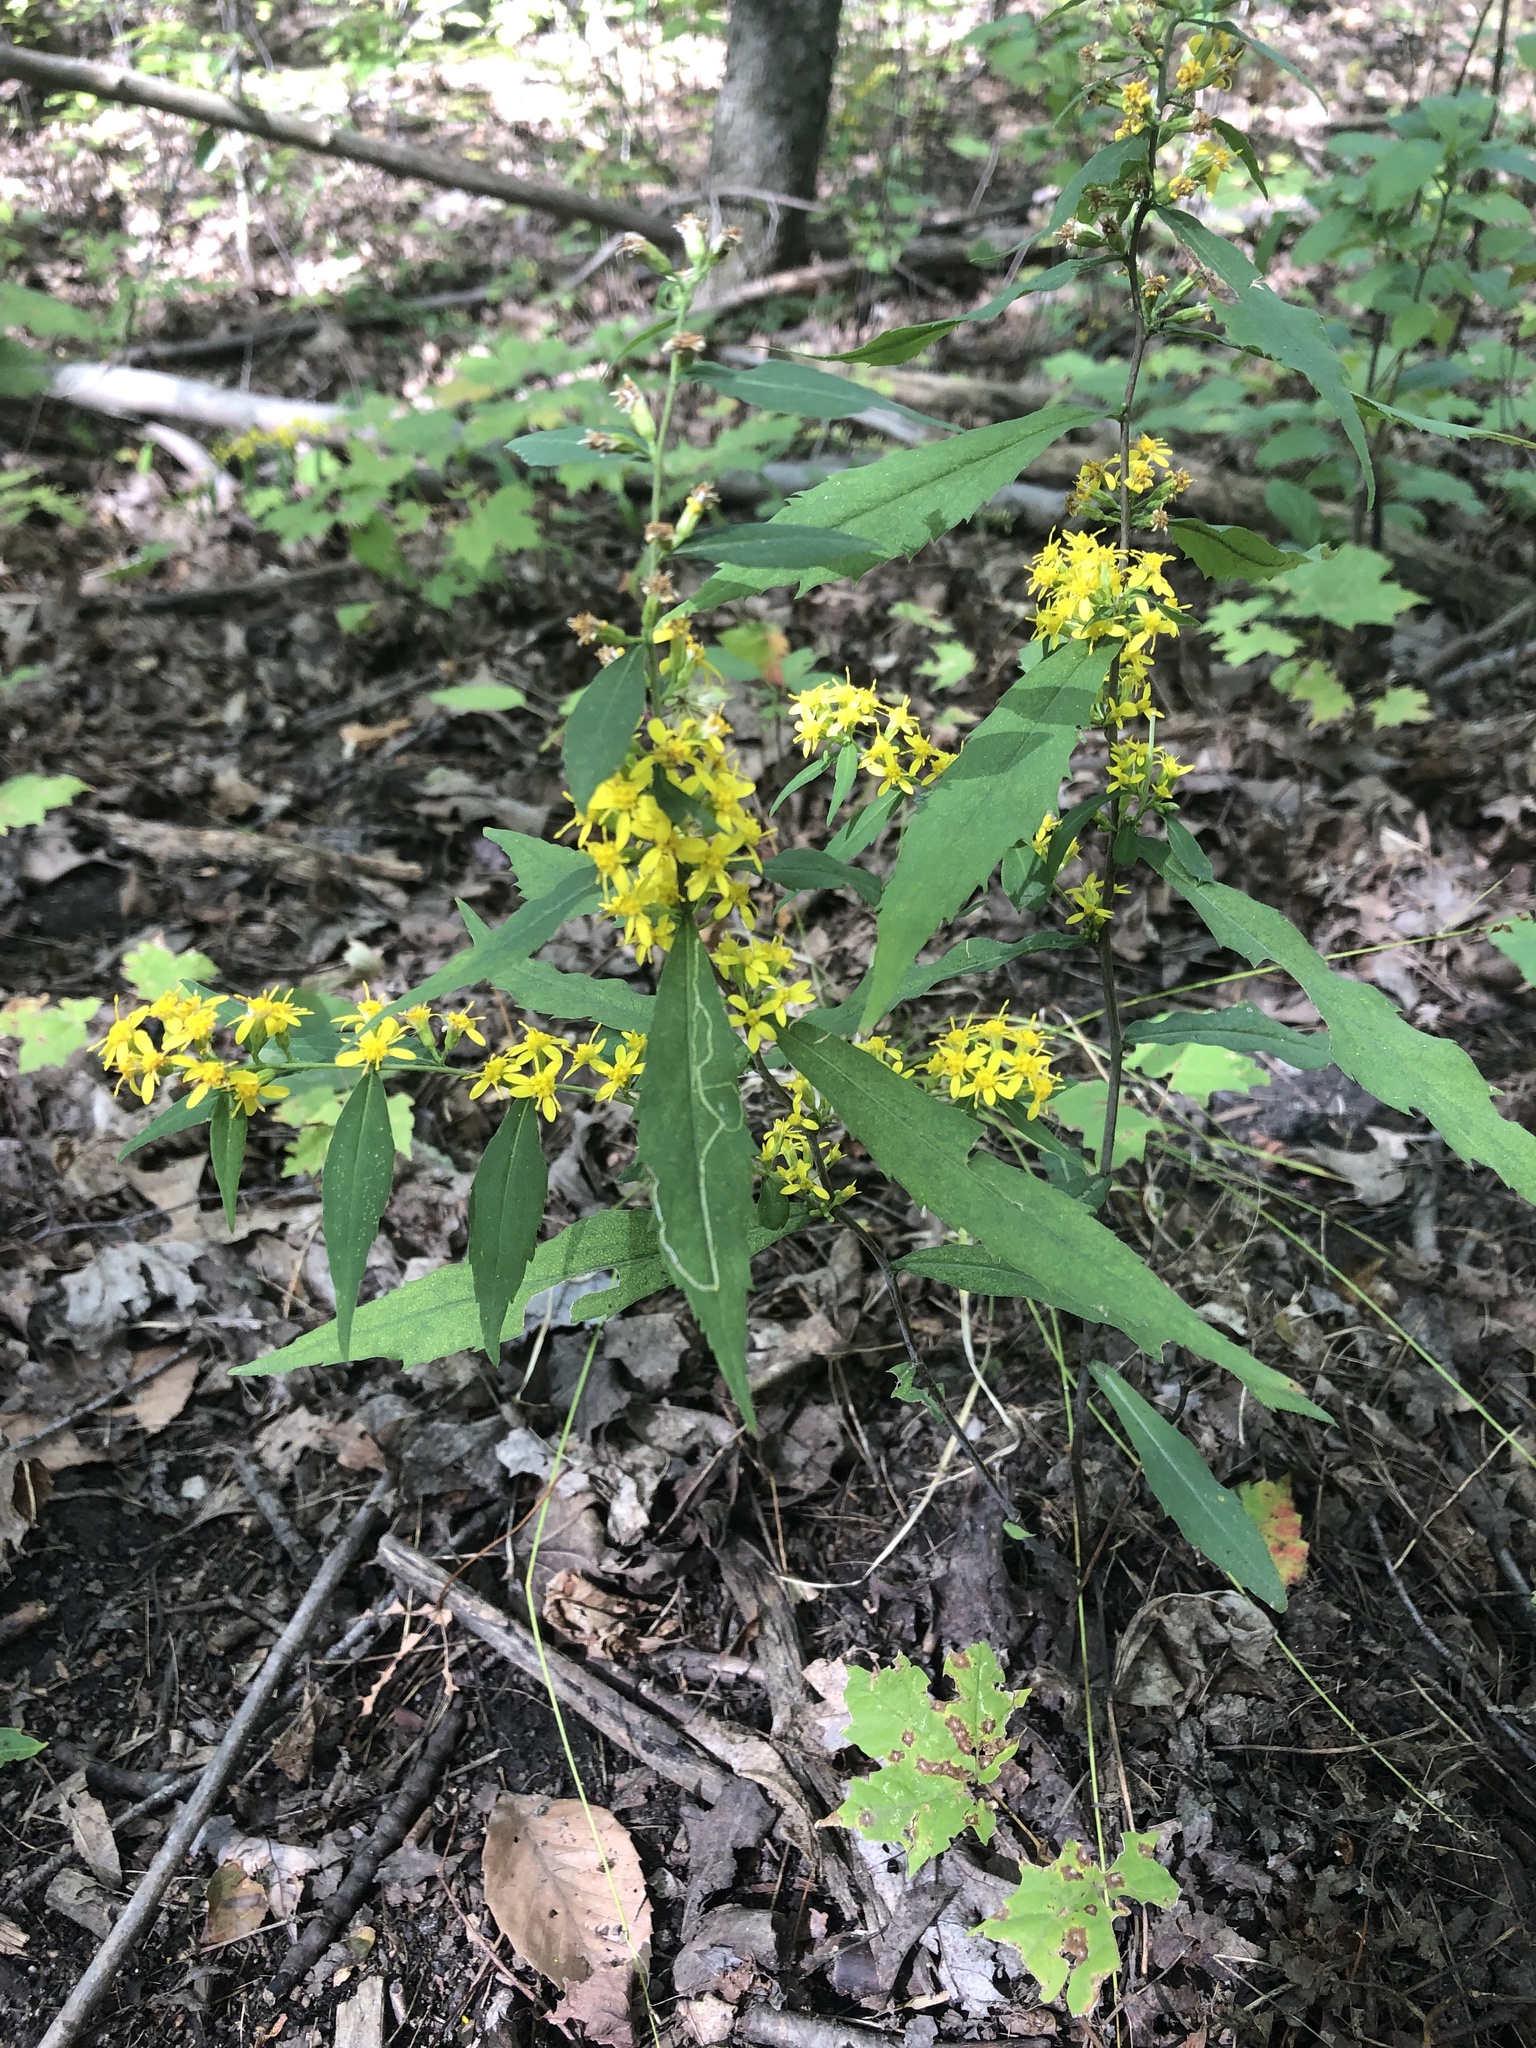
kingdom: Plantae
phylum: Tracheophyta
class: Magnoliopsida
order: Asterales
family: Asteraceae
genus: Solidago
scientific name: Solidago caesia
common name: Woodland goldenrod
